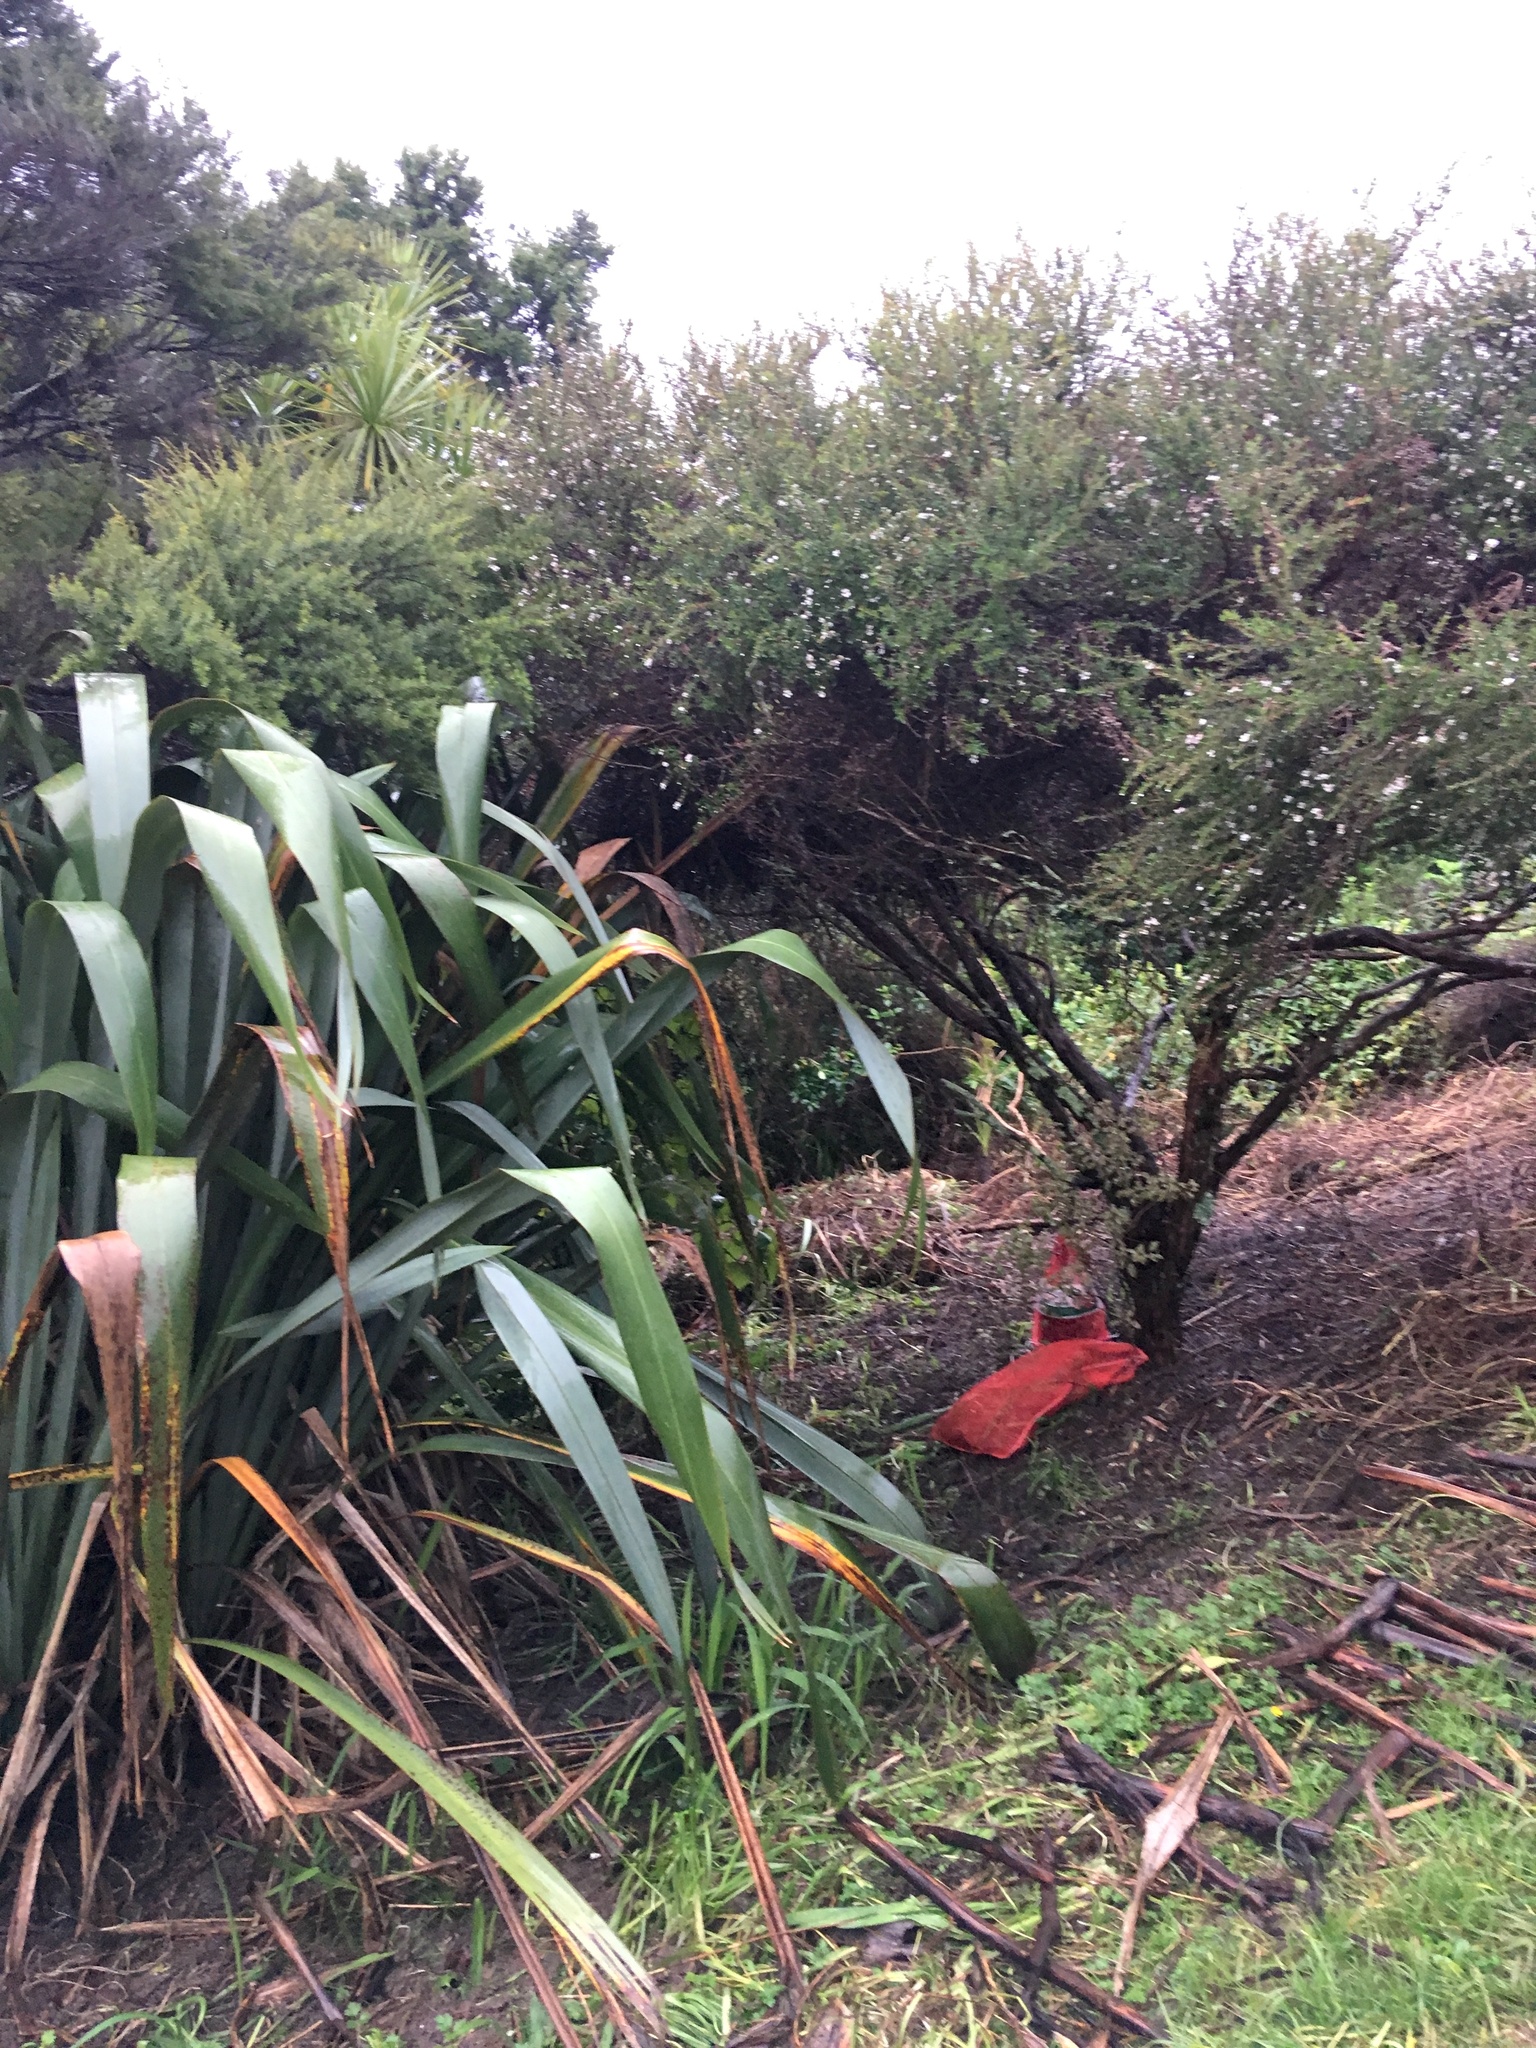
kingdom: Plantae
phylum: Tracheophyta
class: Magnoliopsida
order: Myrtales
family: Myrtaceae
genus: Leptospermum
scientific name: Leptospermum scoparium
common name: Broom tea-tree
